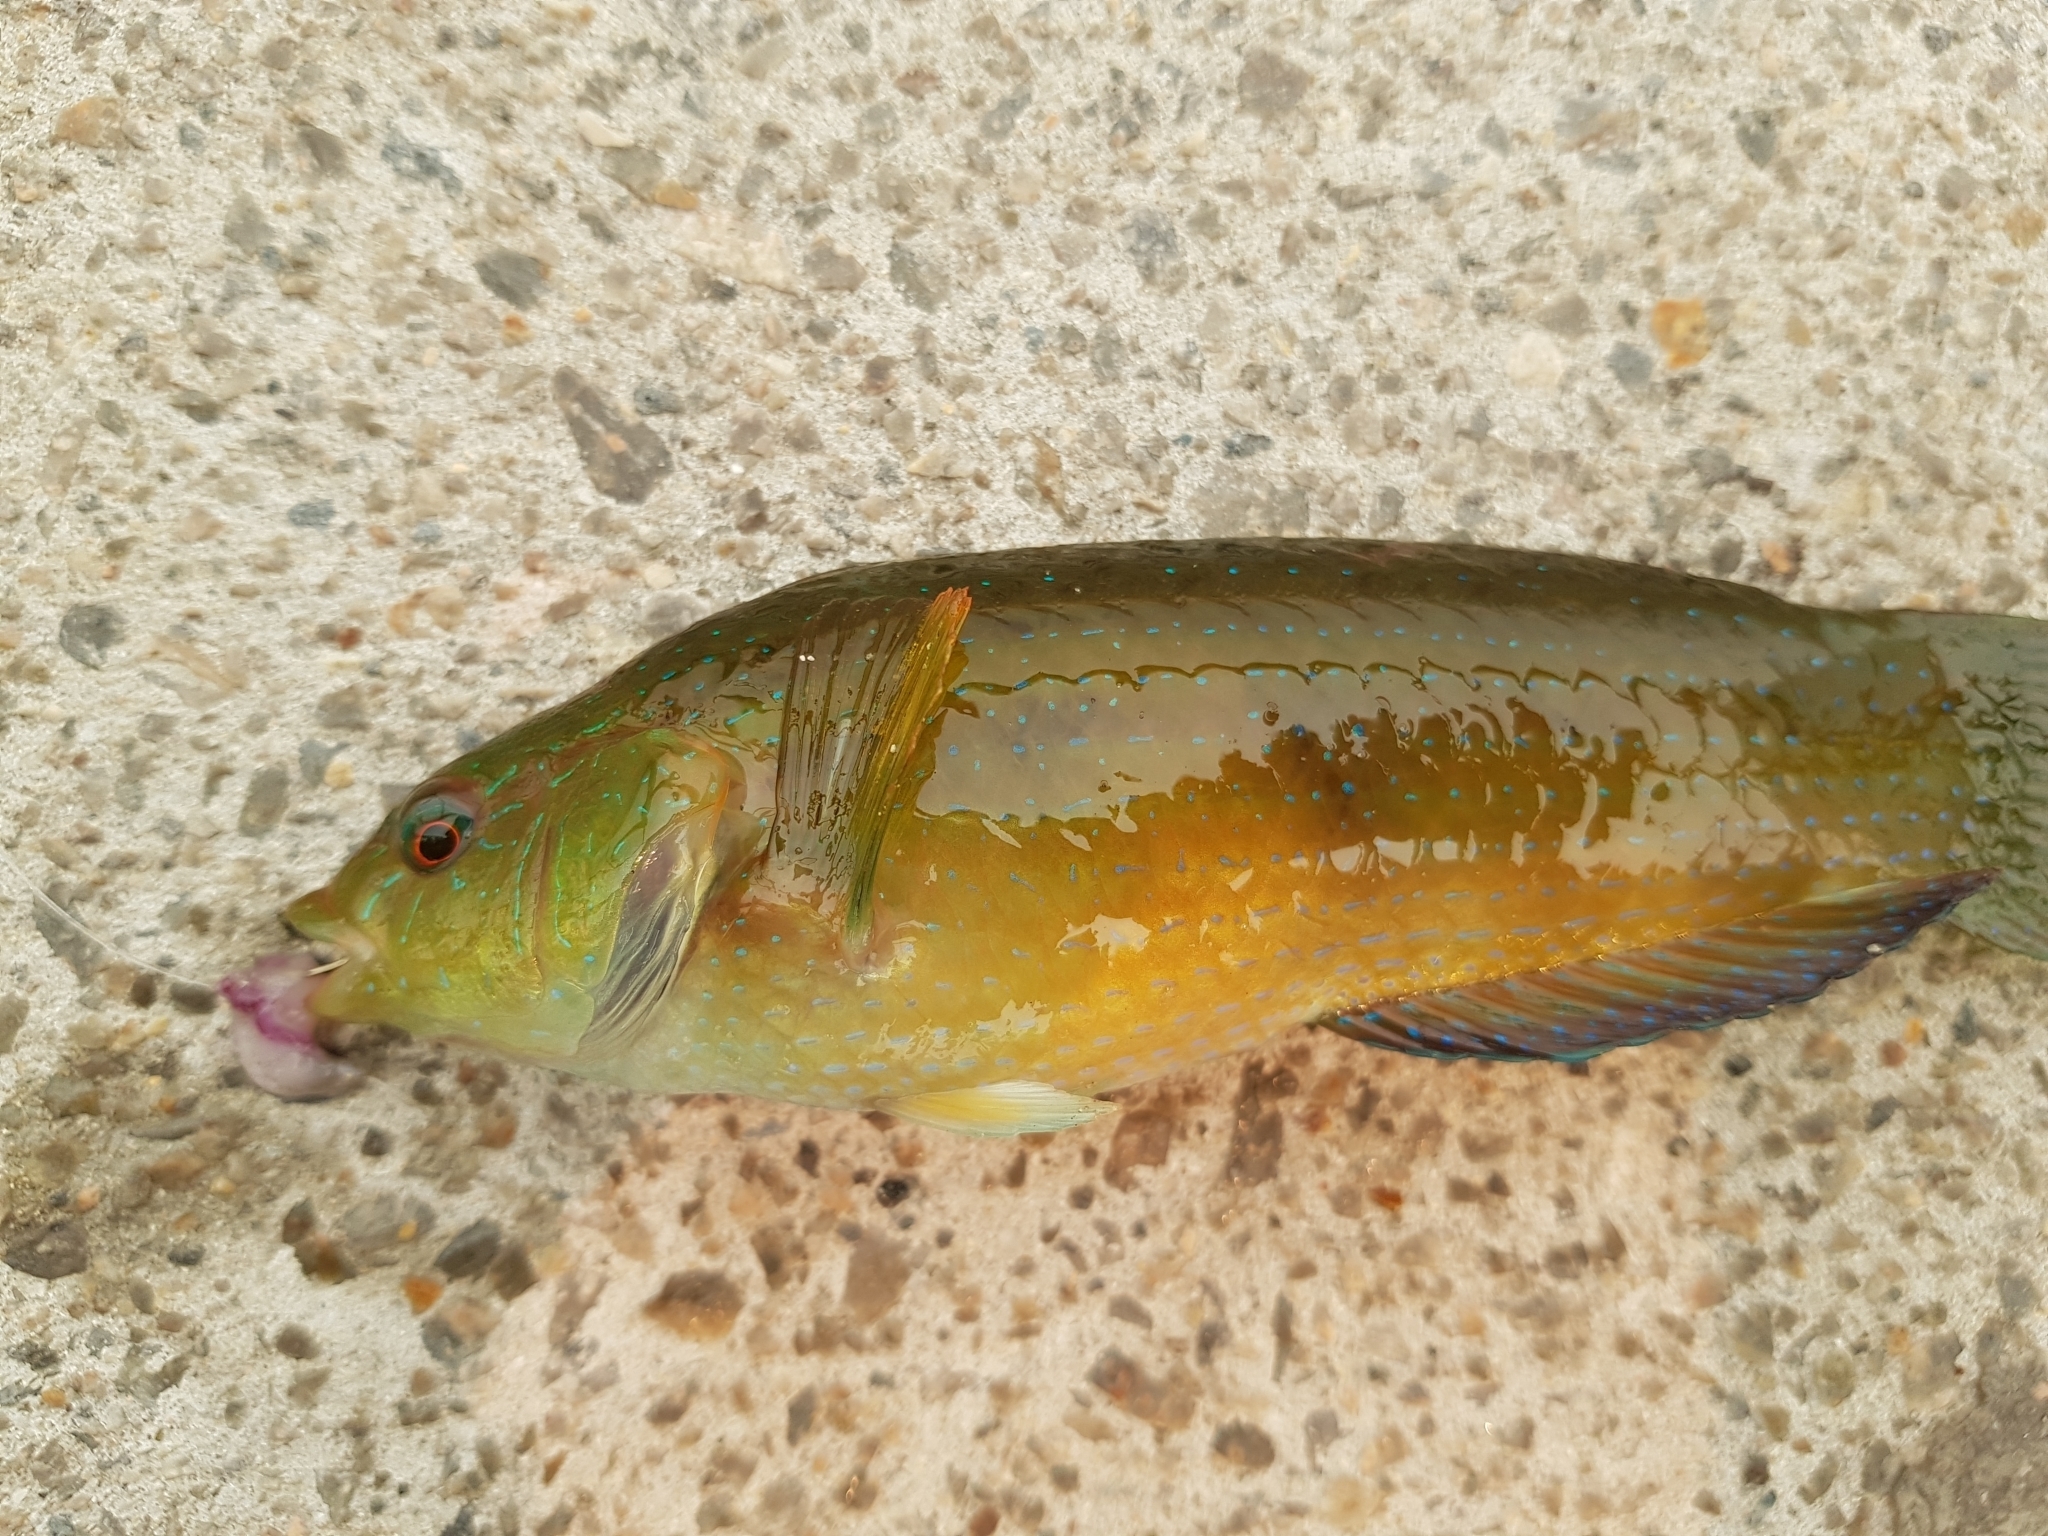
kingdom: Animalia
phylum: Chordata
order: Perciformes
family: Labridae
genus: Pictilabrus
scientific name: Pictilabrus laticlavius
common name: Patrician wrasse
